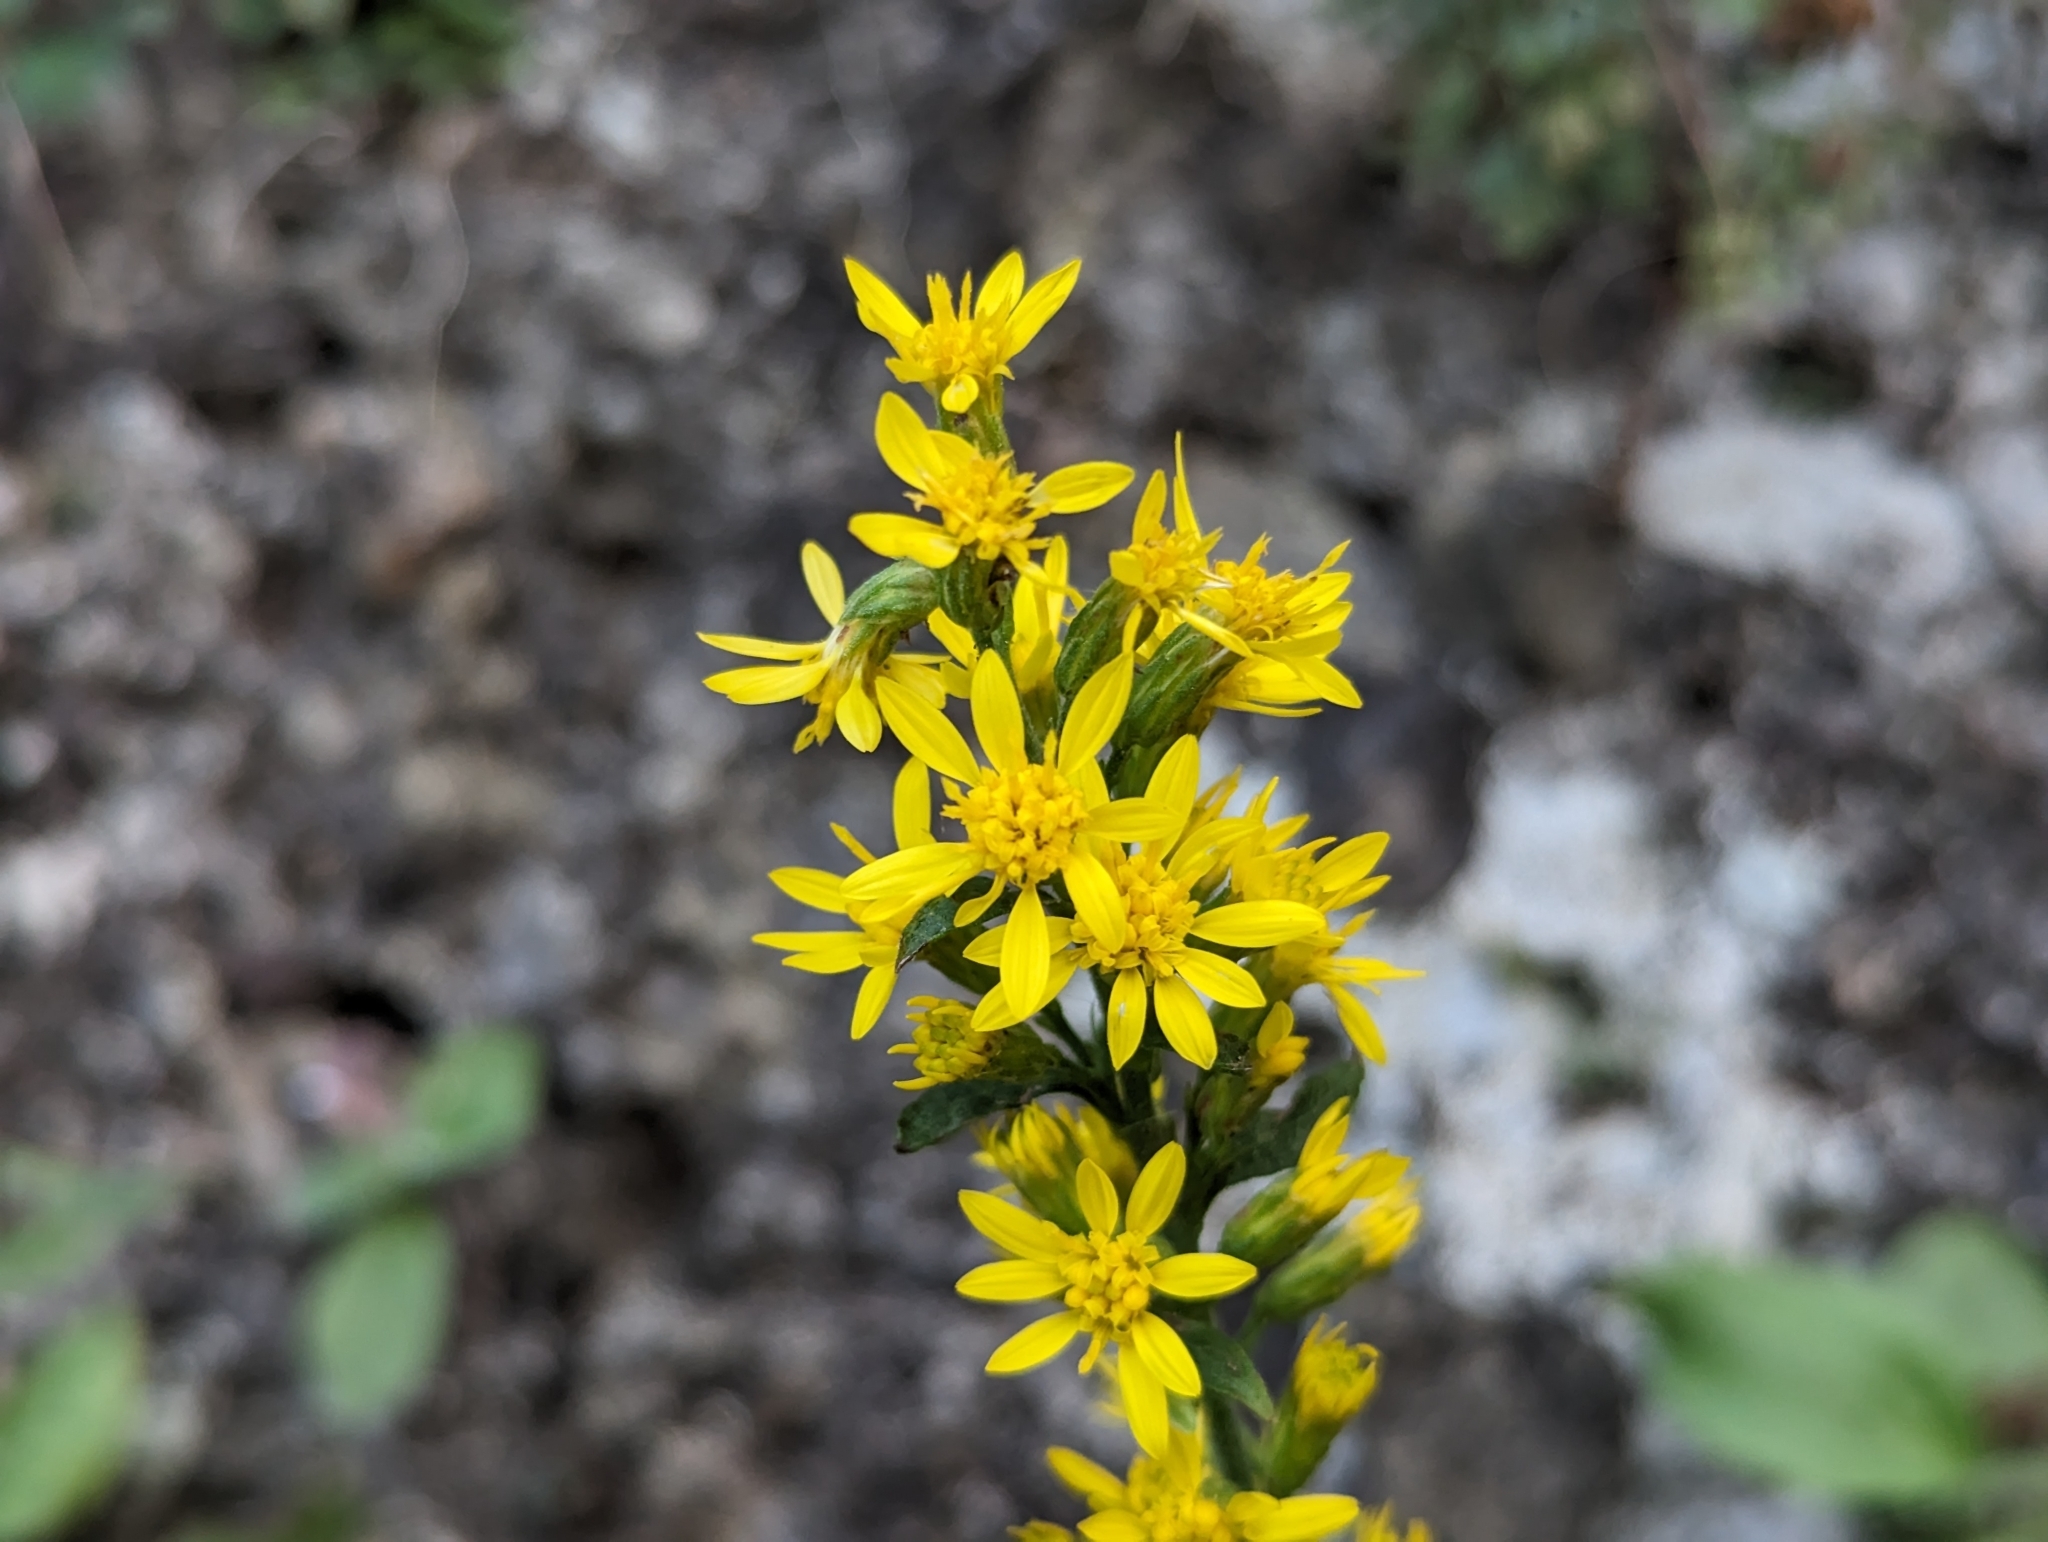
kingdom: Plantae
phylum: Tracheophyta
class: Magnoliopsida
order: Asterales
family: Asteraceae
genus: Solidago
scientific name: Solidago virgaurea
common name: Goldenrod
